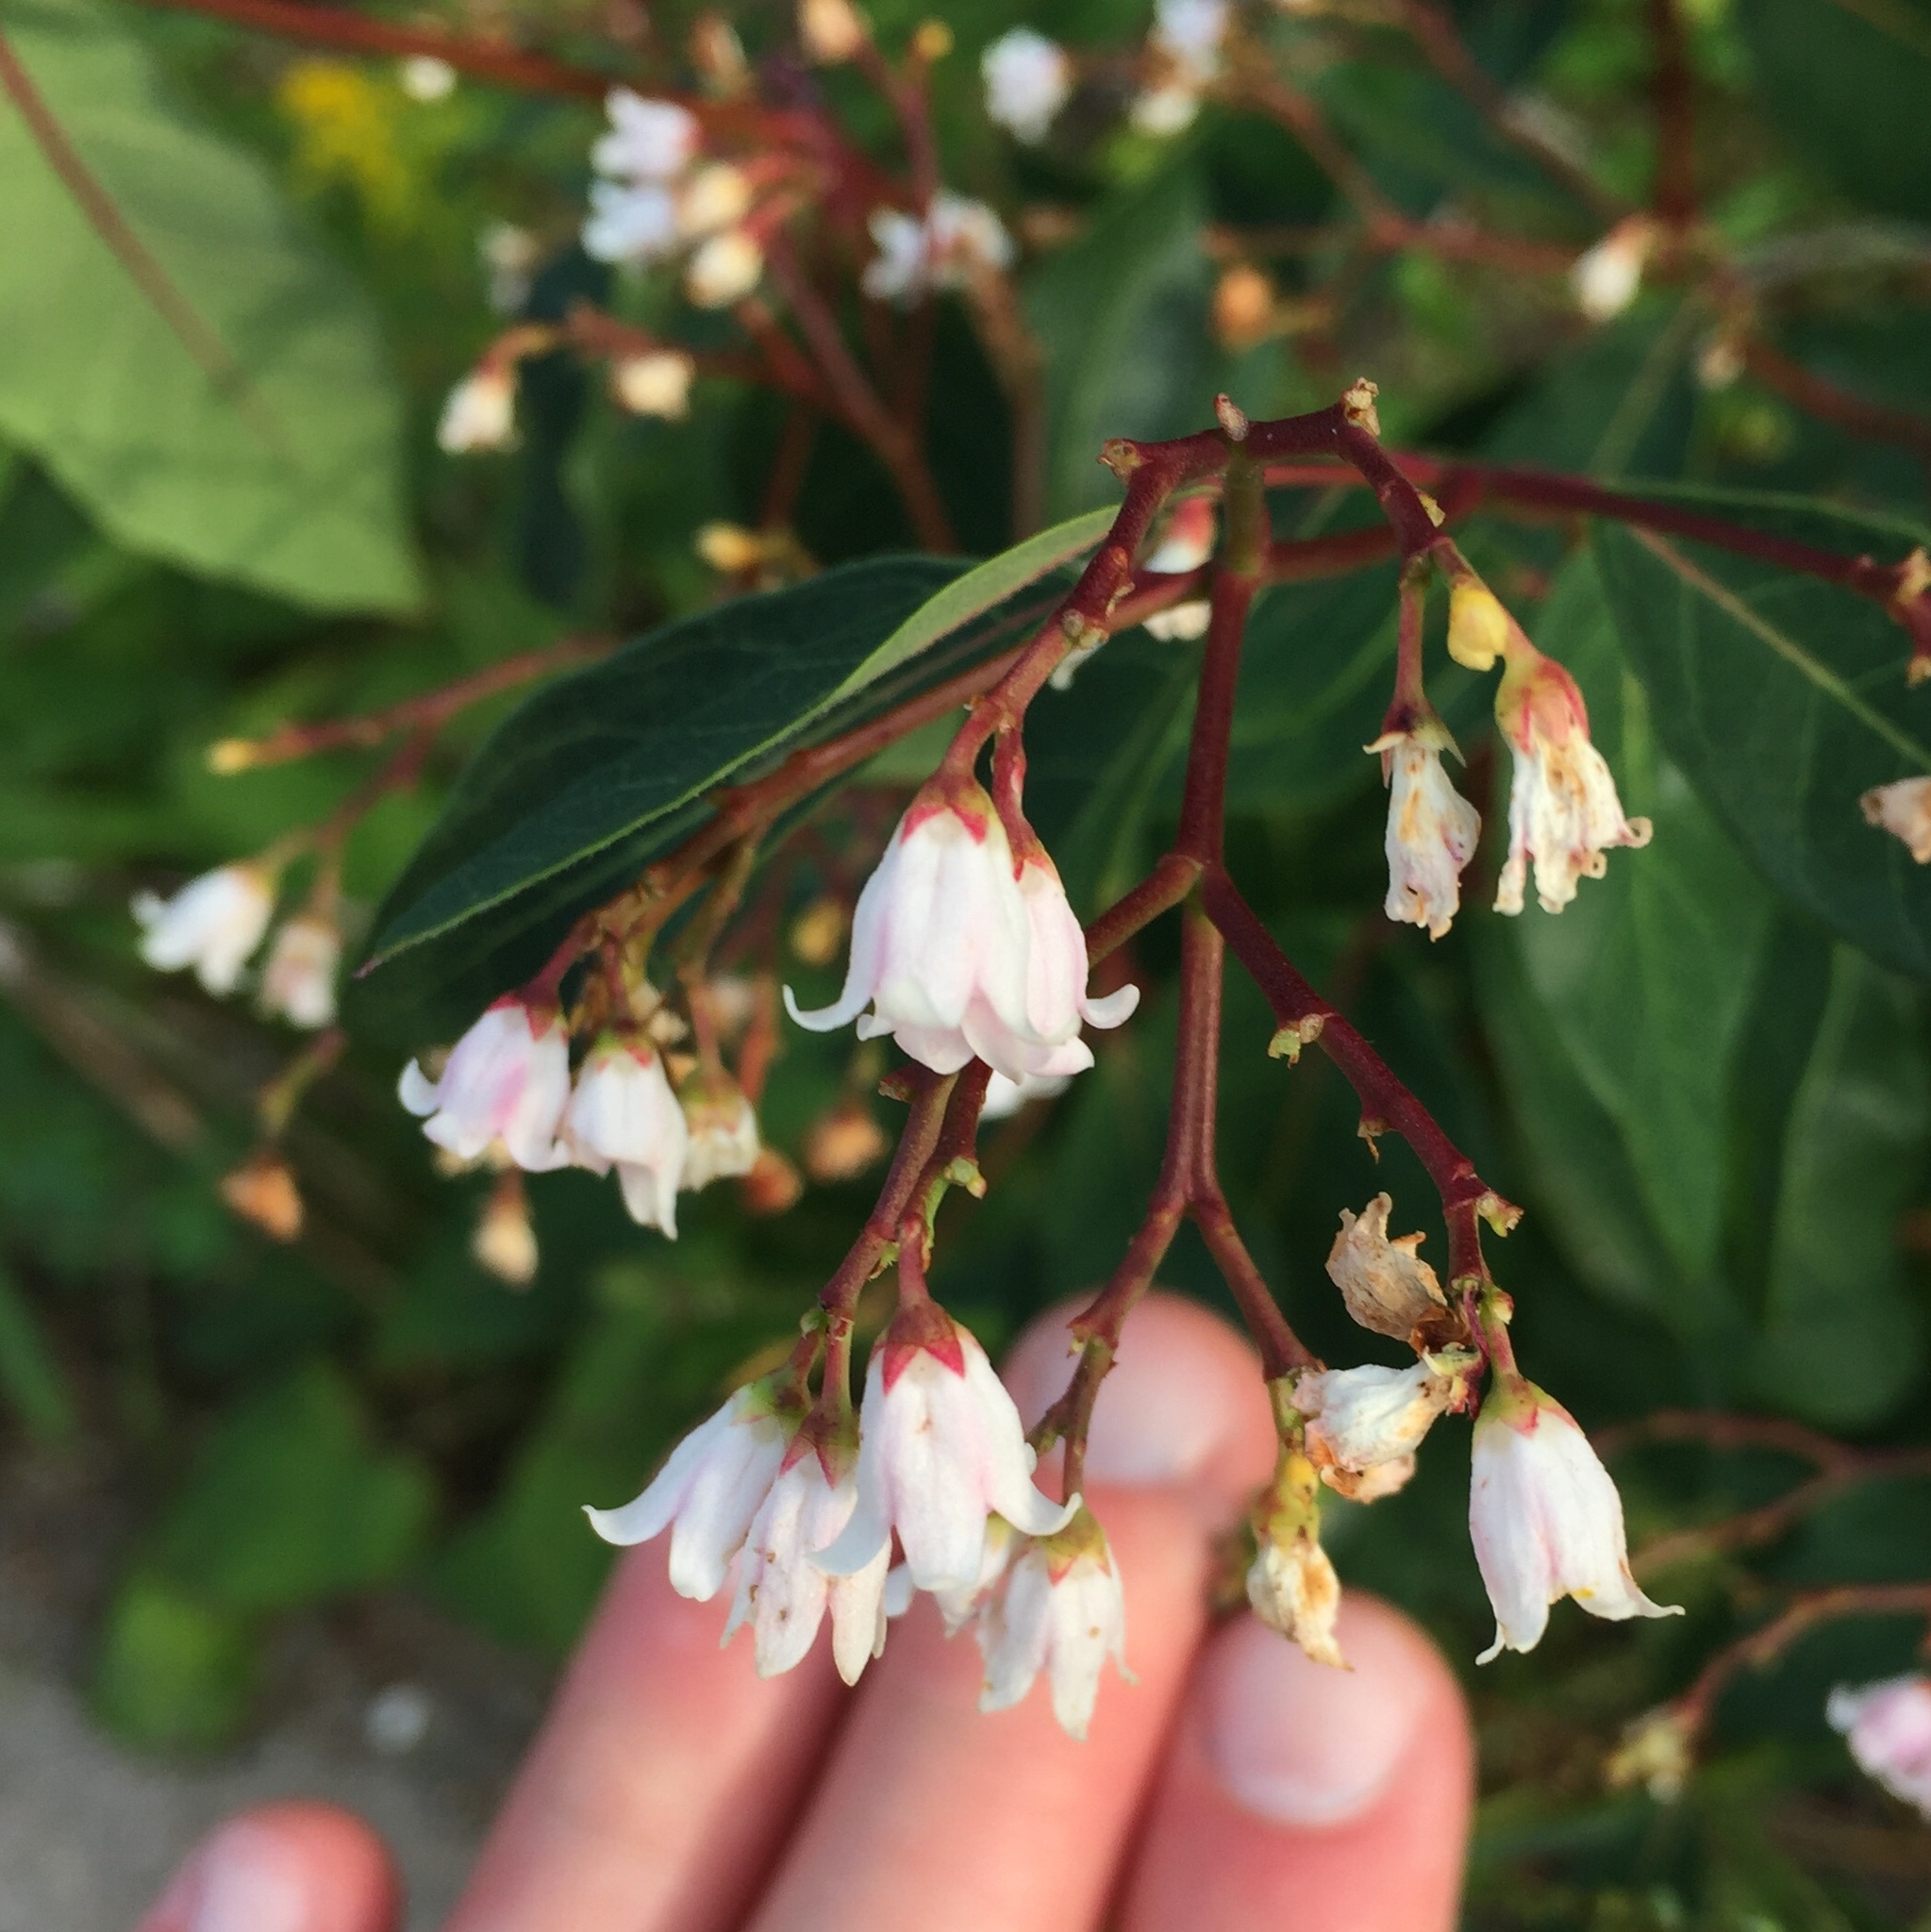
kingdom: Plantae
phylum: Tracheophyta
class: Magnoliopsida
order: Gentianales
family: Apocynaceae
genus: Apocynum
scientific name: Apocynum androsaemifolium
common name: Spreading dogbane
